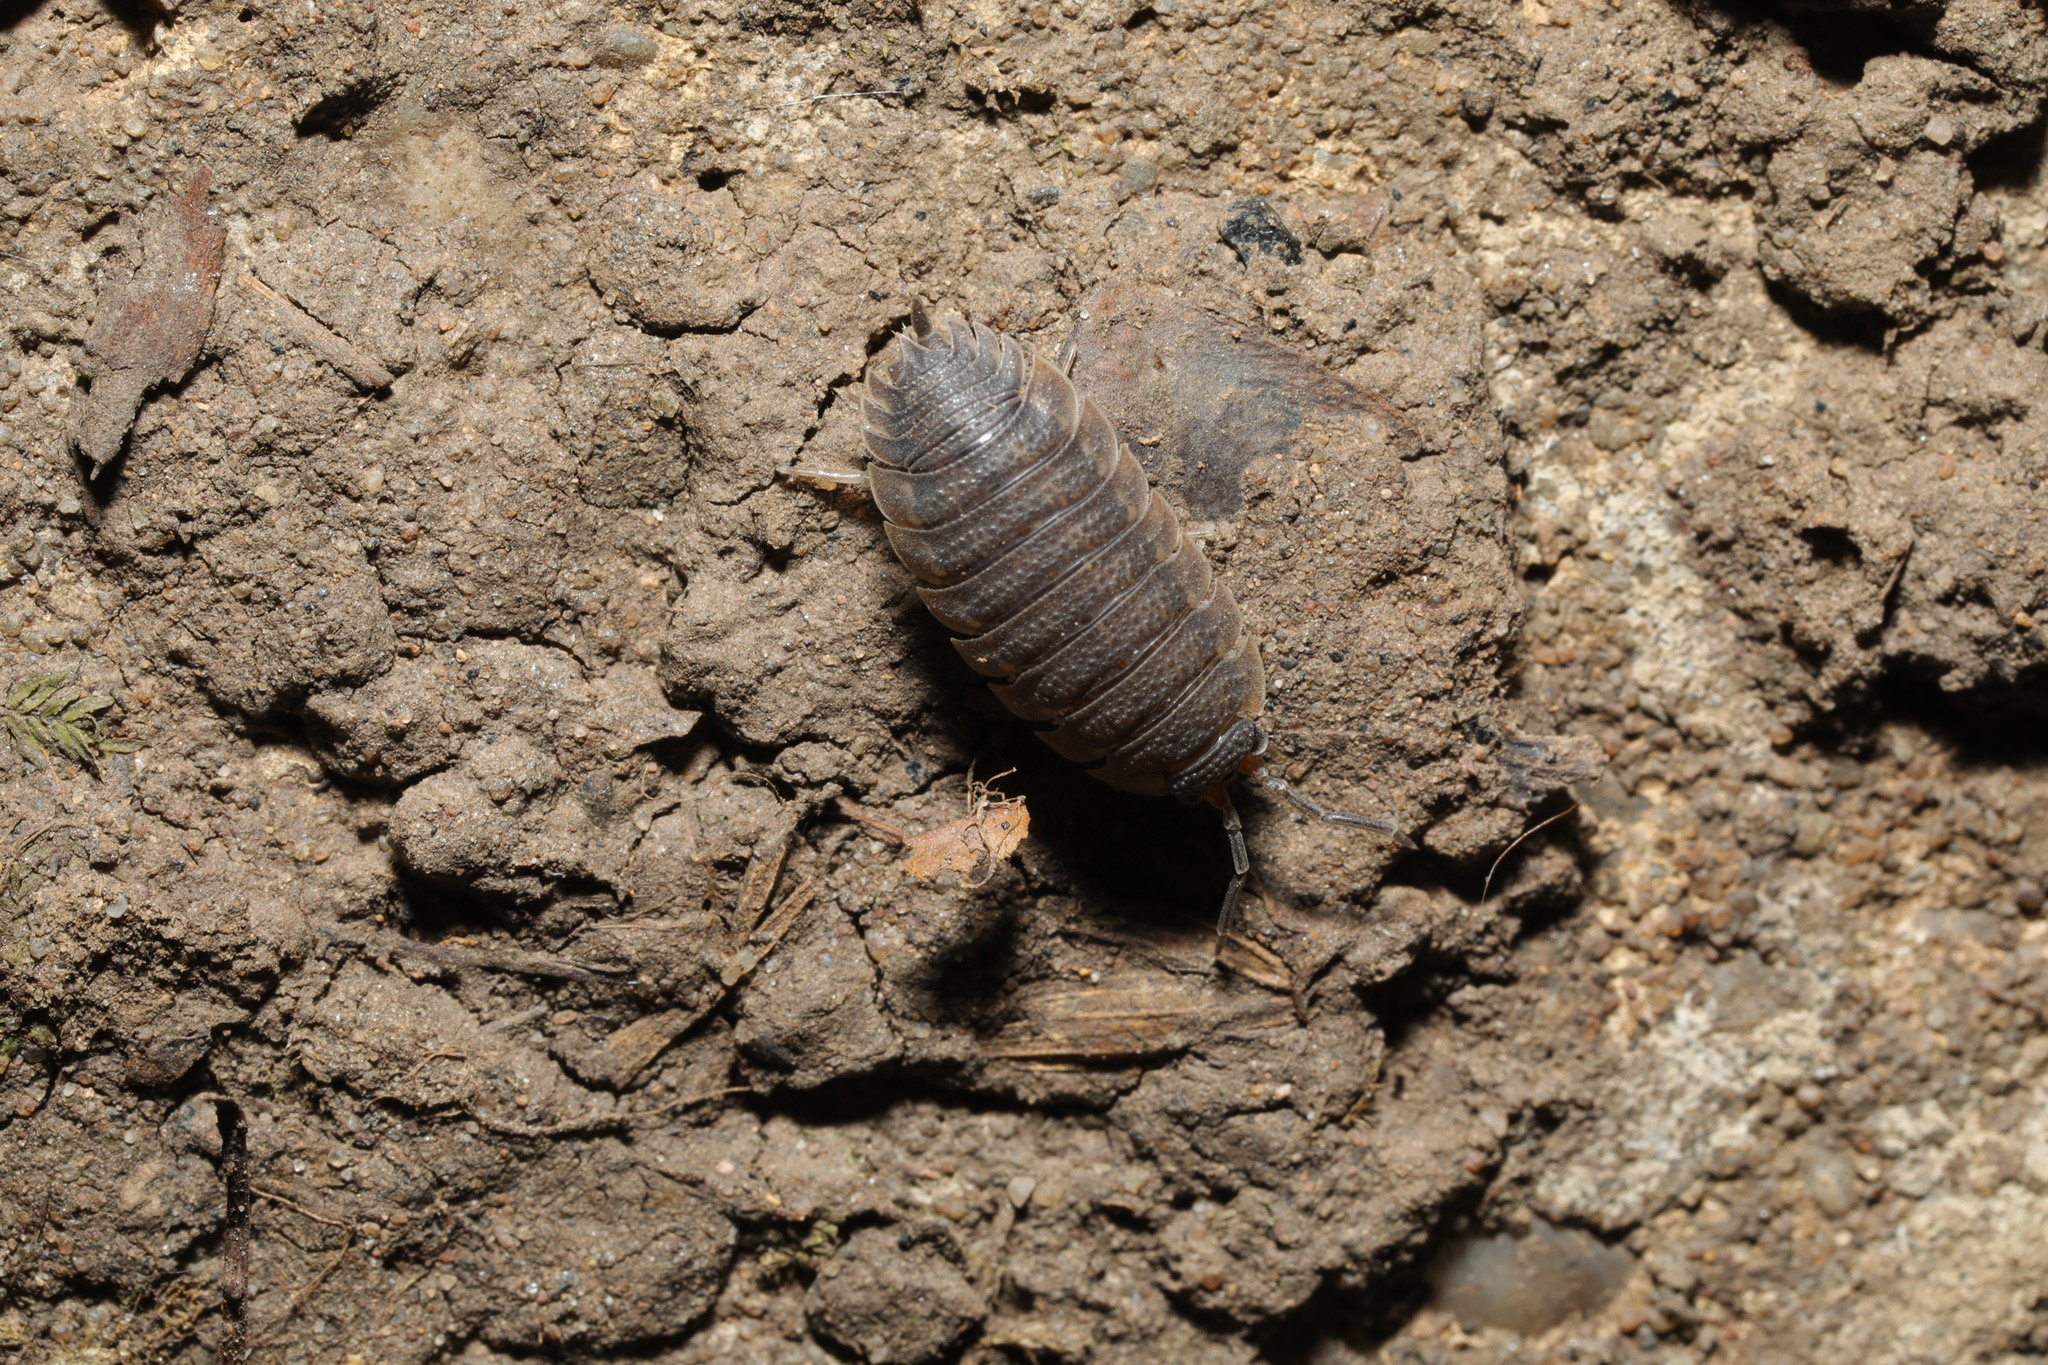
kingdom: Animalia
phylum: Arthropoda
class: Malacostraca
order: Isopoda
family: Porcellionidae
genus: Porcellio
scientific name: Porcellio scaber
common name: Common rough woodlouse
